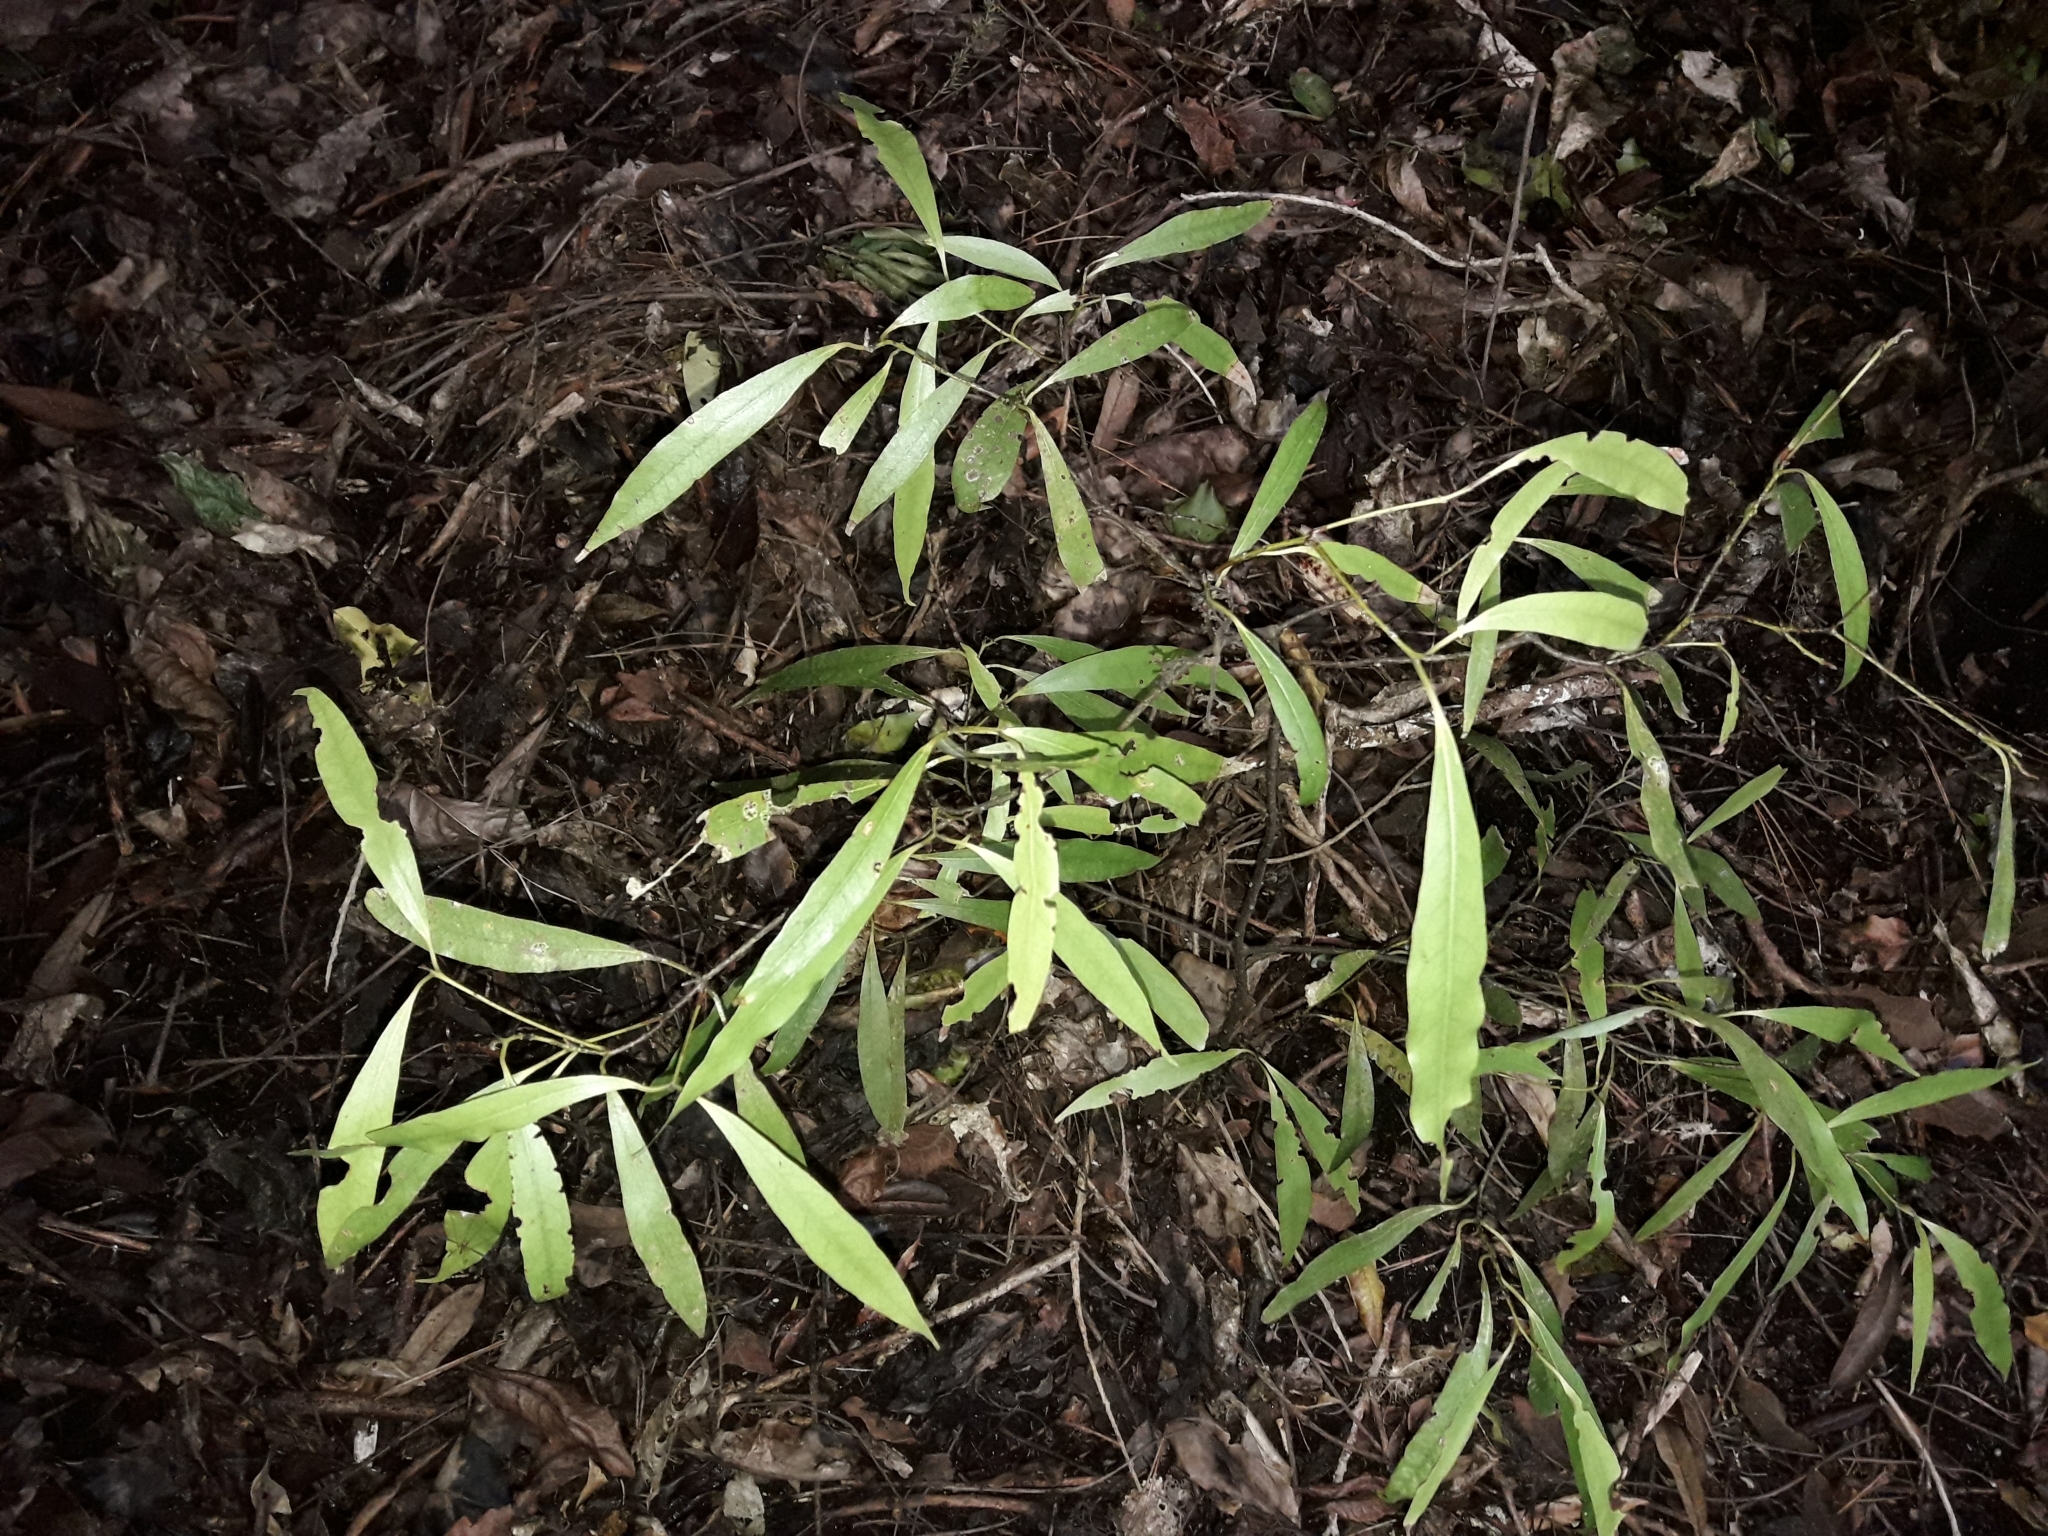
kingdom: Plantae
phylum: Tracheophyta
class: Magnoliopsida
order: Laurales
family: Lauraceae
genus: Beilschmiedia
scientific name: Beilschmiedia tawa
